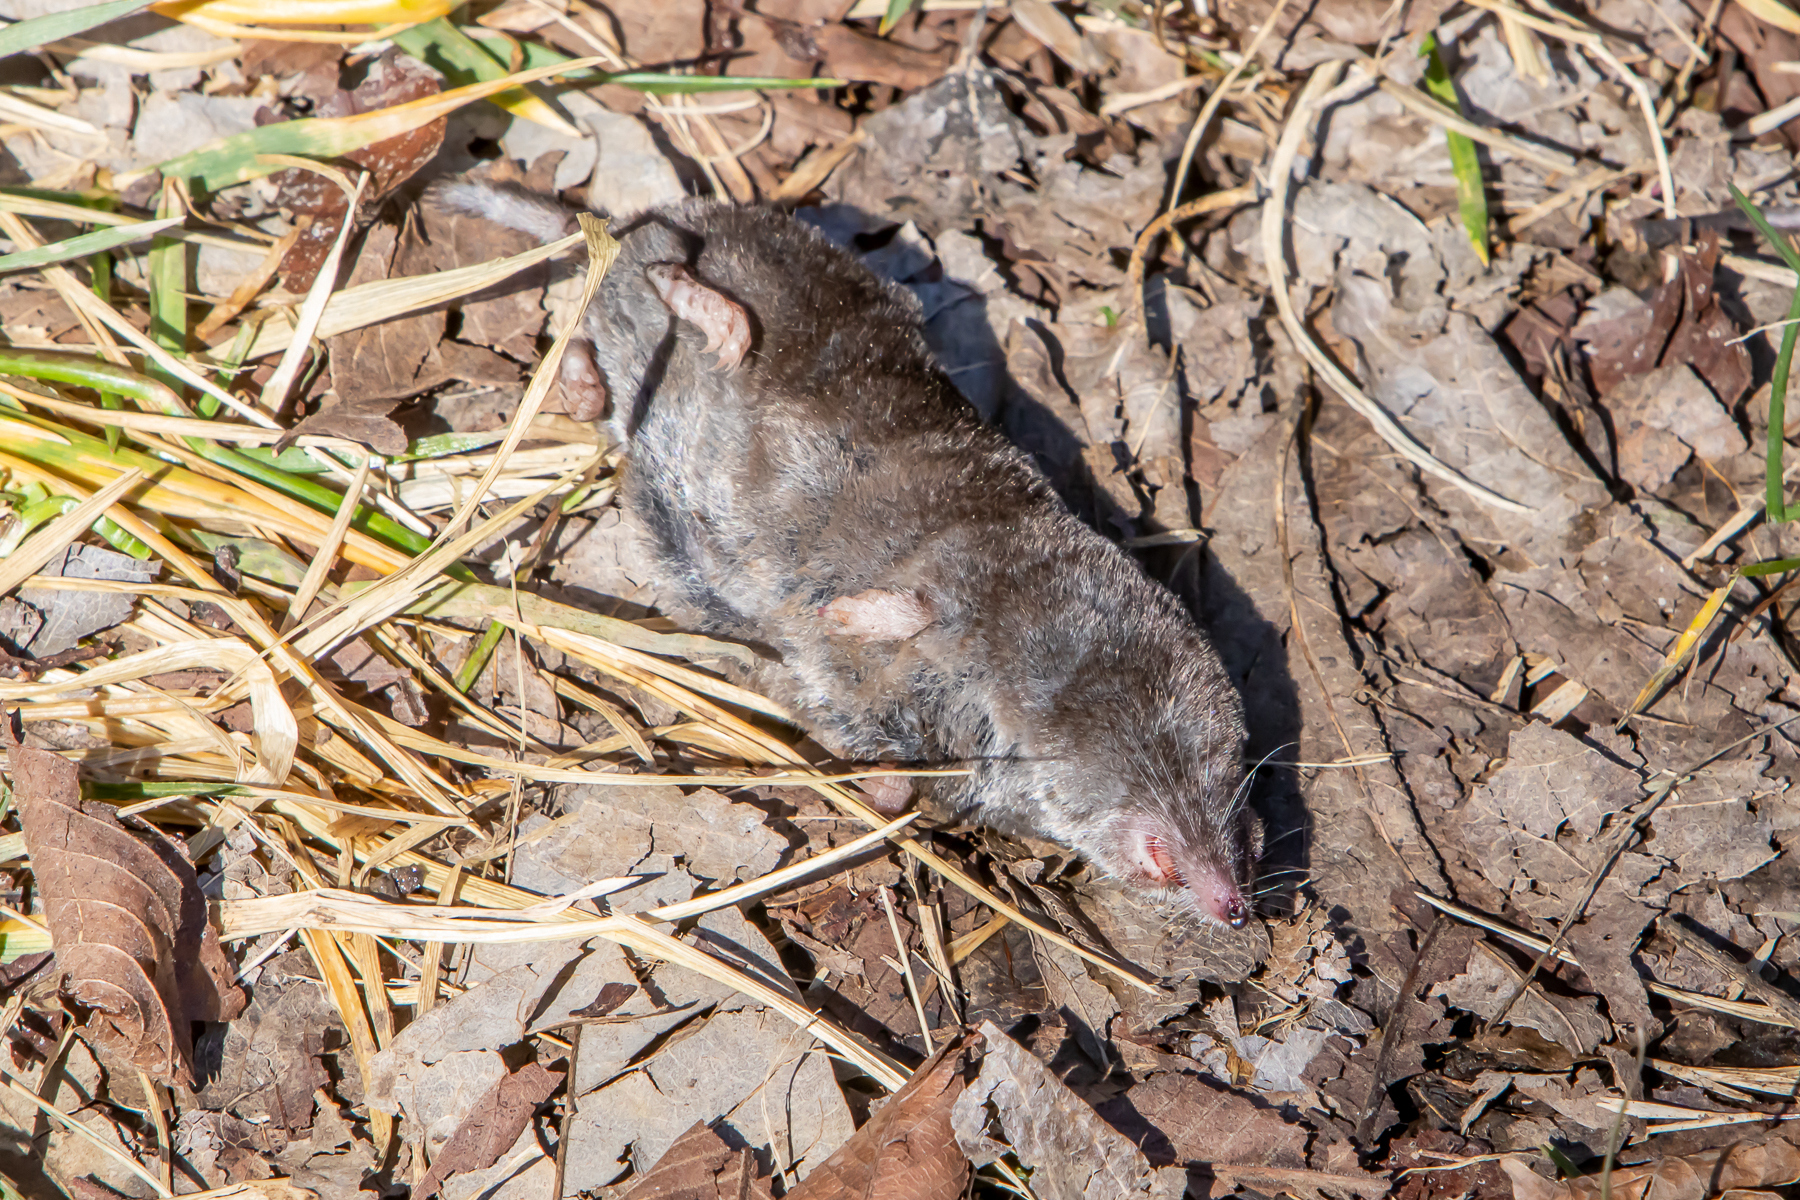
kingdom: Animalia
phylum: Chordata
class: Mammalia
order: Soricomorpha
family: Soricidae
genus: Blarina
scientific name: Blarina brevicauda
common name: Northern short-tailed shrew
